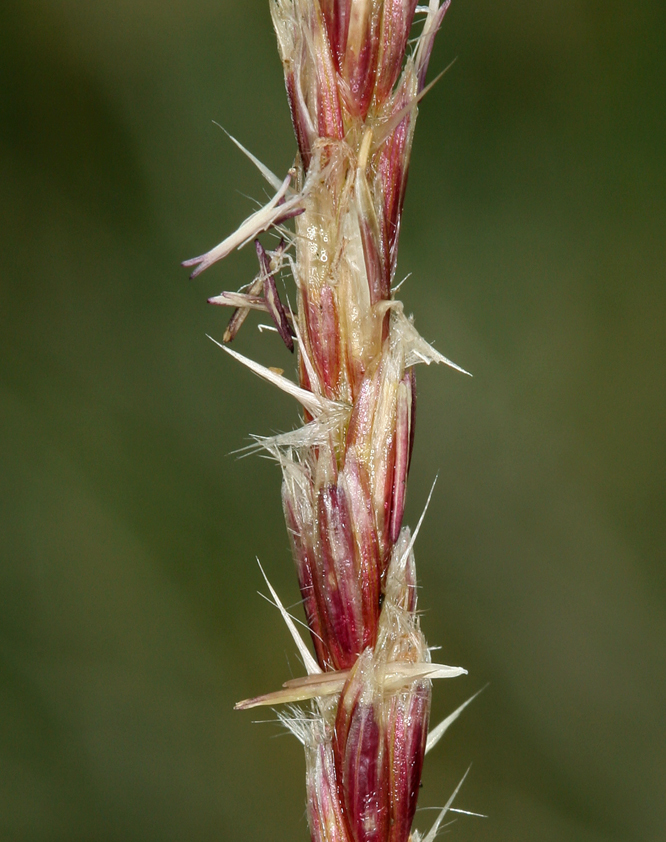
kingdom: Plantae
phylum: Tracheophyta
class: Liliopsida
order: Poales
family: Poaceae
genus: Hilaria
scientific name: Hilaria jamesii
